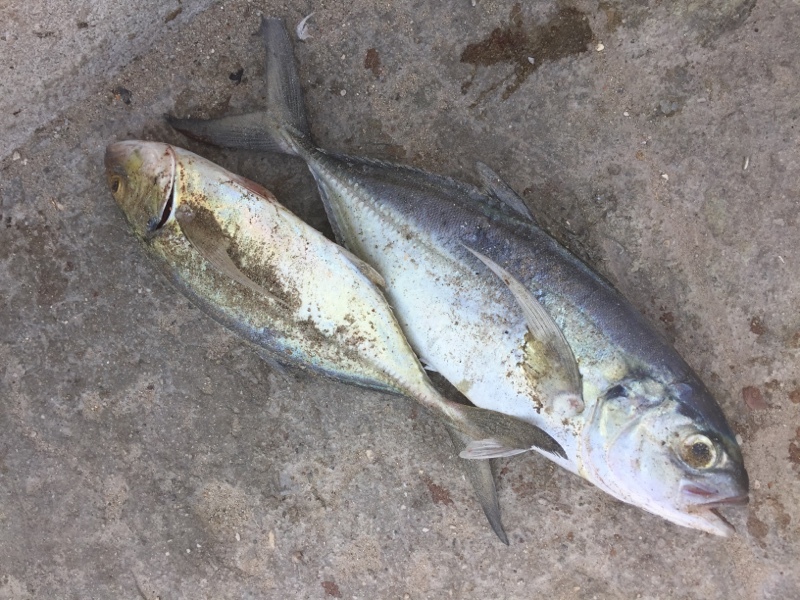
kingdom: Animalia
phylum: Chordata
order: Perciformes
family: Carangidae
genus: Caranx
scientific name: Caranx crysos
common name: Blue runner
